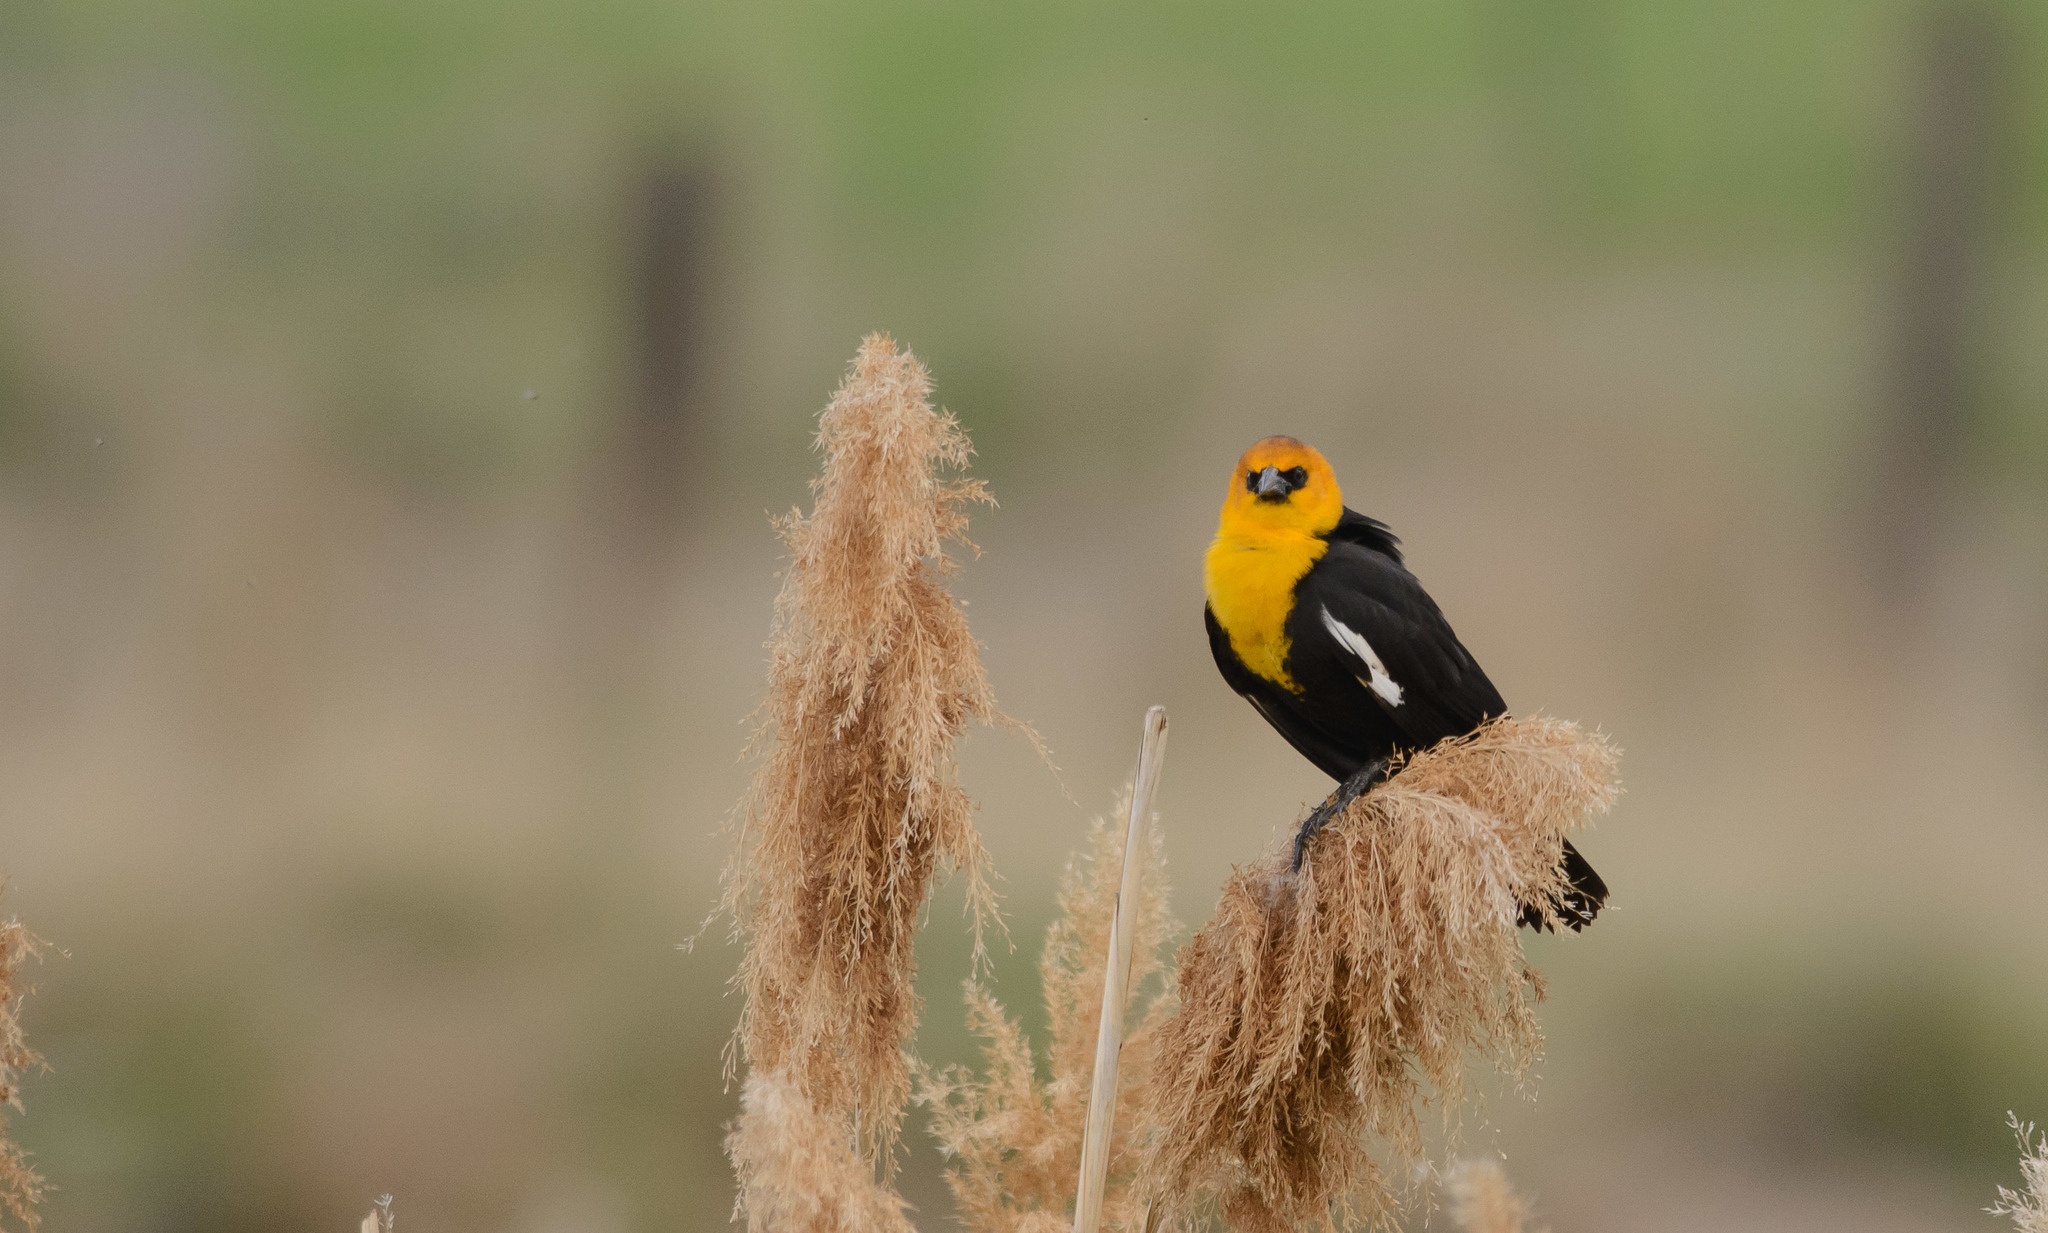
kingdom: Animalia
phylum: Chordata
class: Aves
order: Passeriformes
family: Icteridae
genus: Xanthocephalus
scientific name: Xanthocephalus xanthocephalus
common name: Yellow-headed blackbird
